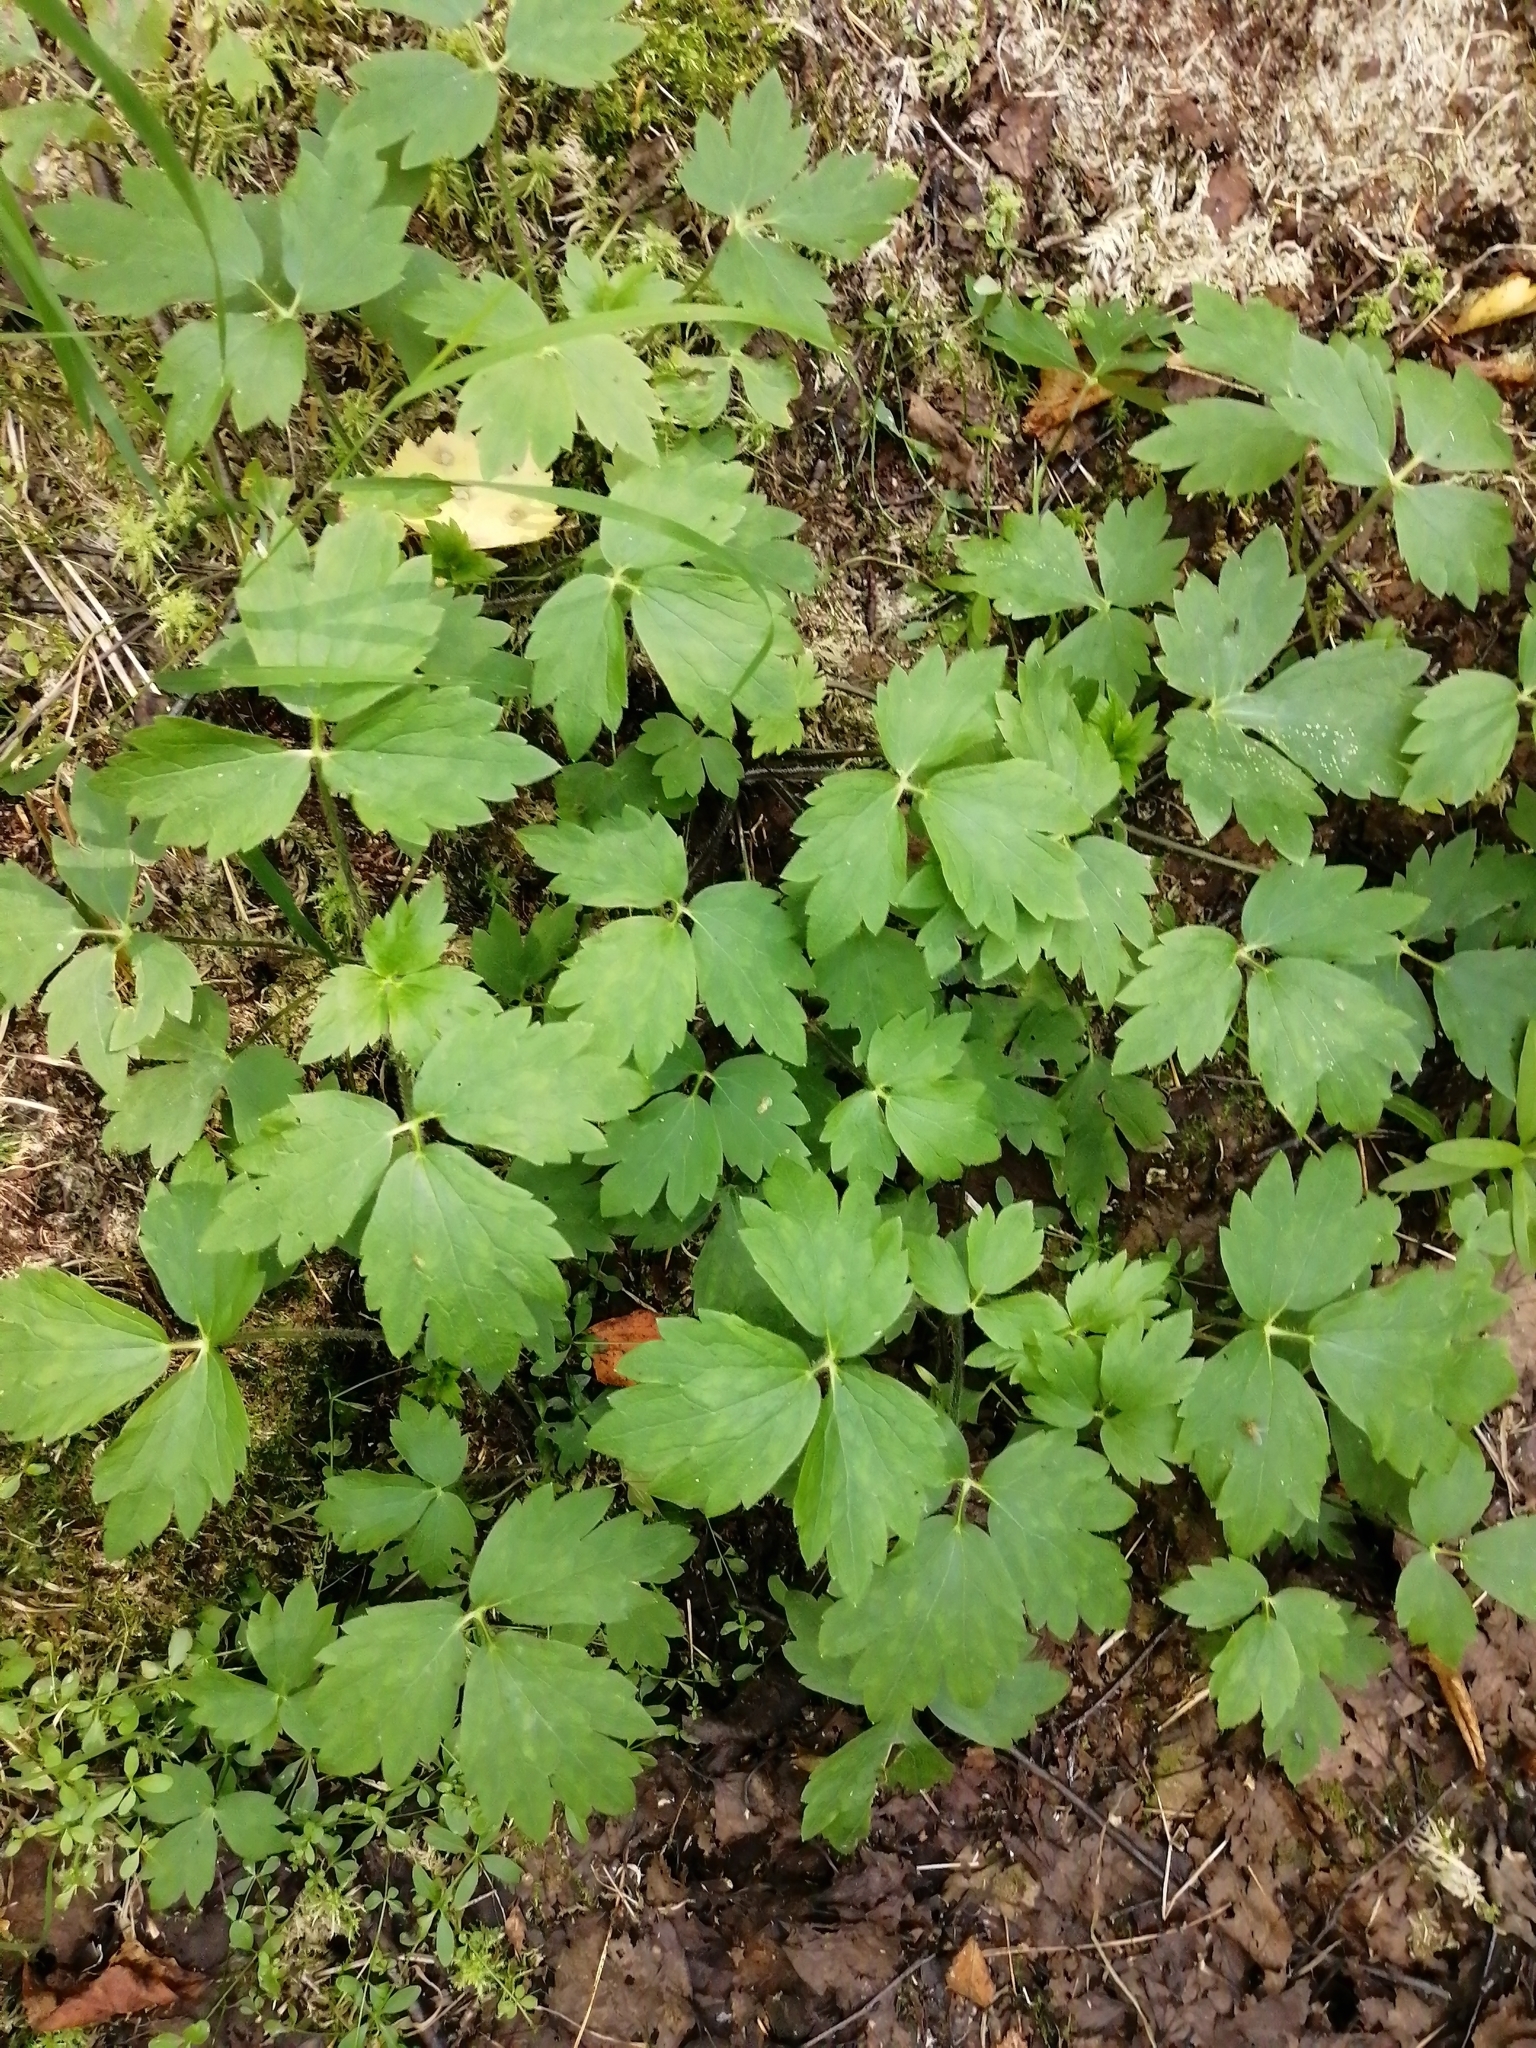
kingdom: Plantae
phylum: Tracheophyta
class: Magnoliopsida
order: Ranunculales
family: Ranunculaceae
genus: Ranunculus
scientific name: Ranunculus repens
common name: Creeping buttercup
